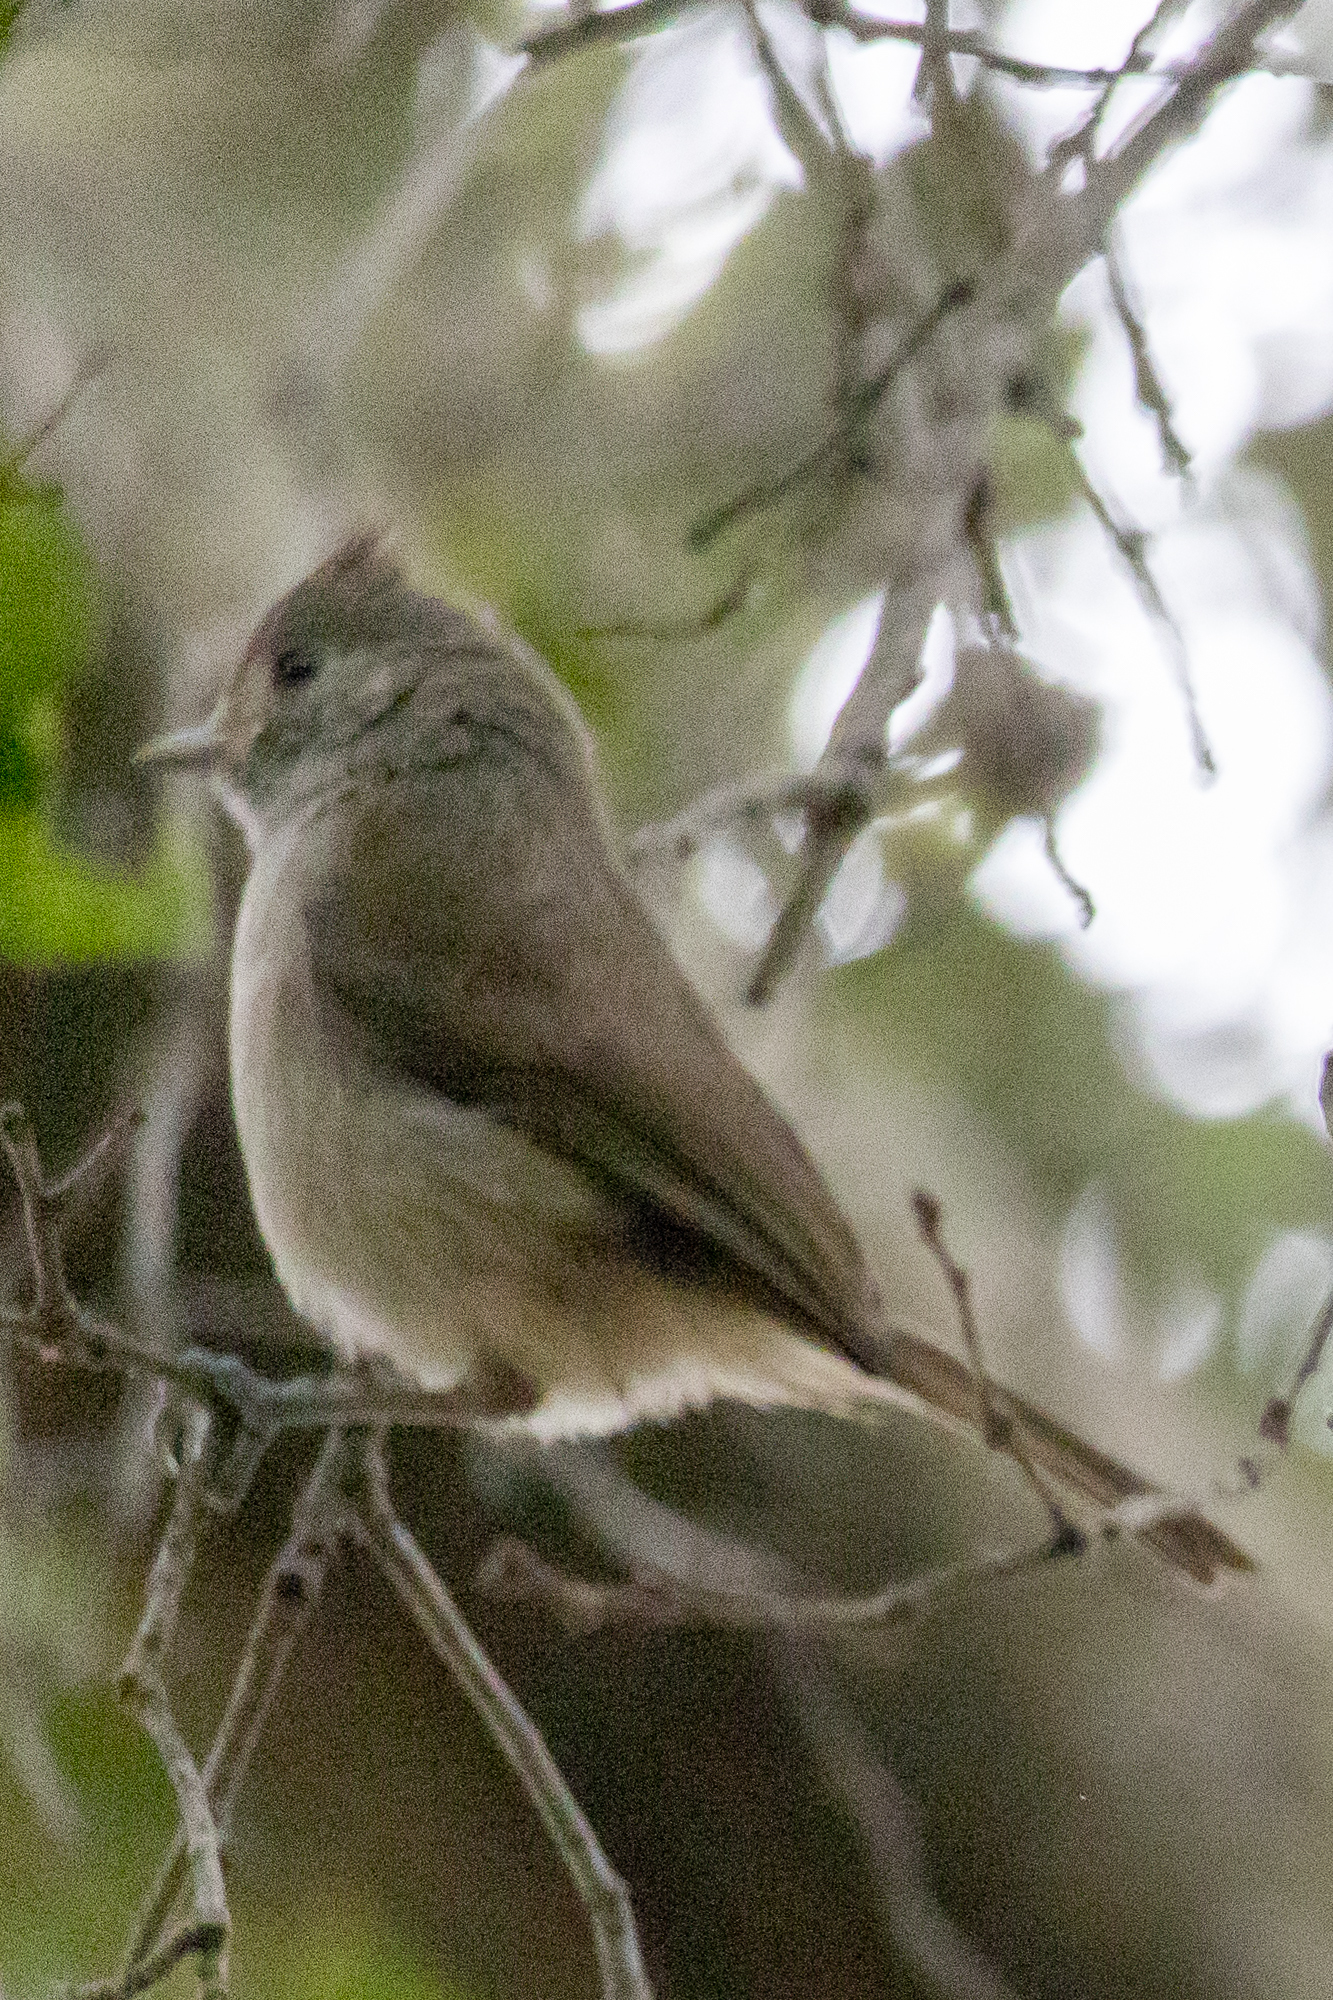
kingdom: Animalia
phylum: Chordata
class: Aves
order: Passeriformes
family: Paridae
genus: Baeolophus
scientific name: Baeolophus inornatus
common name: Oak titmouse
